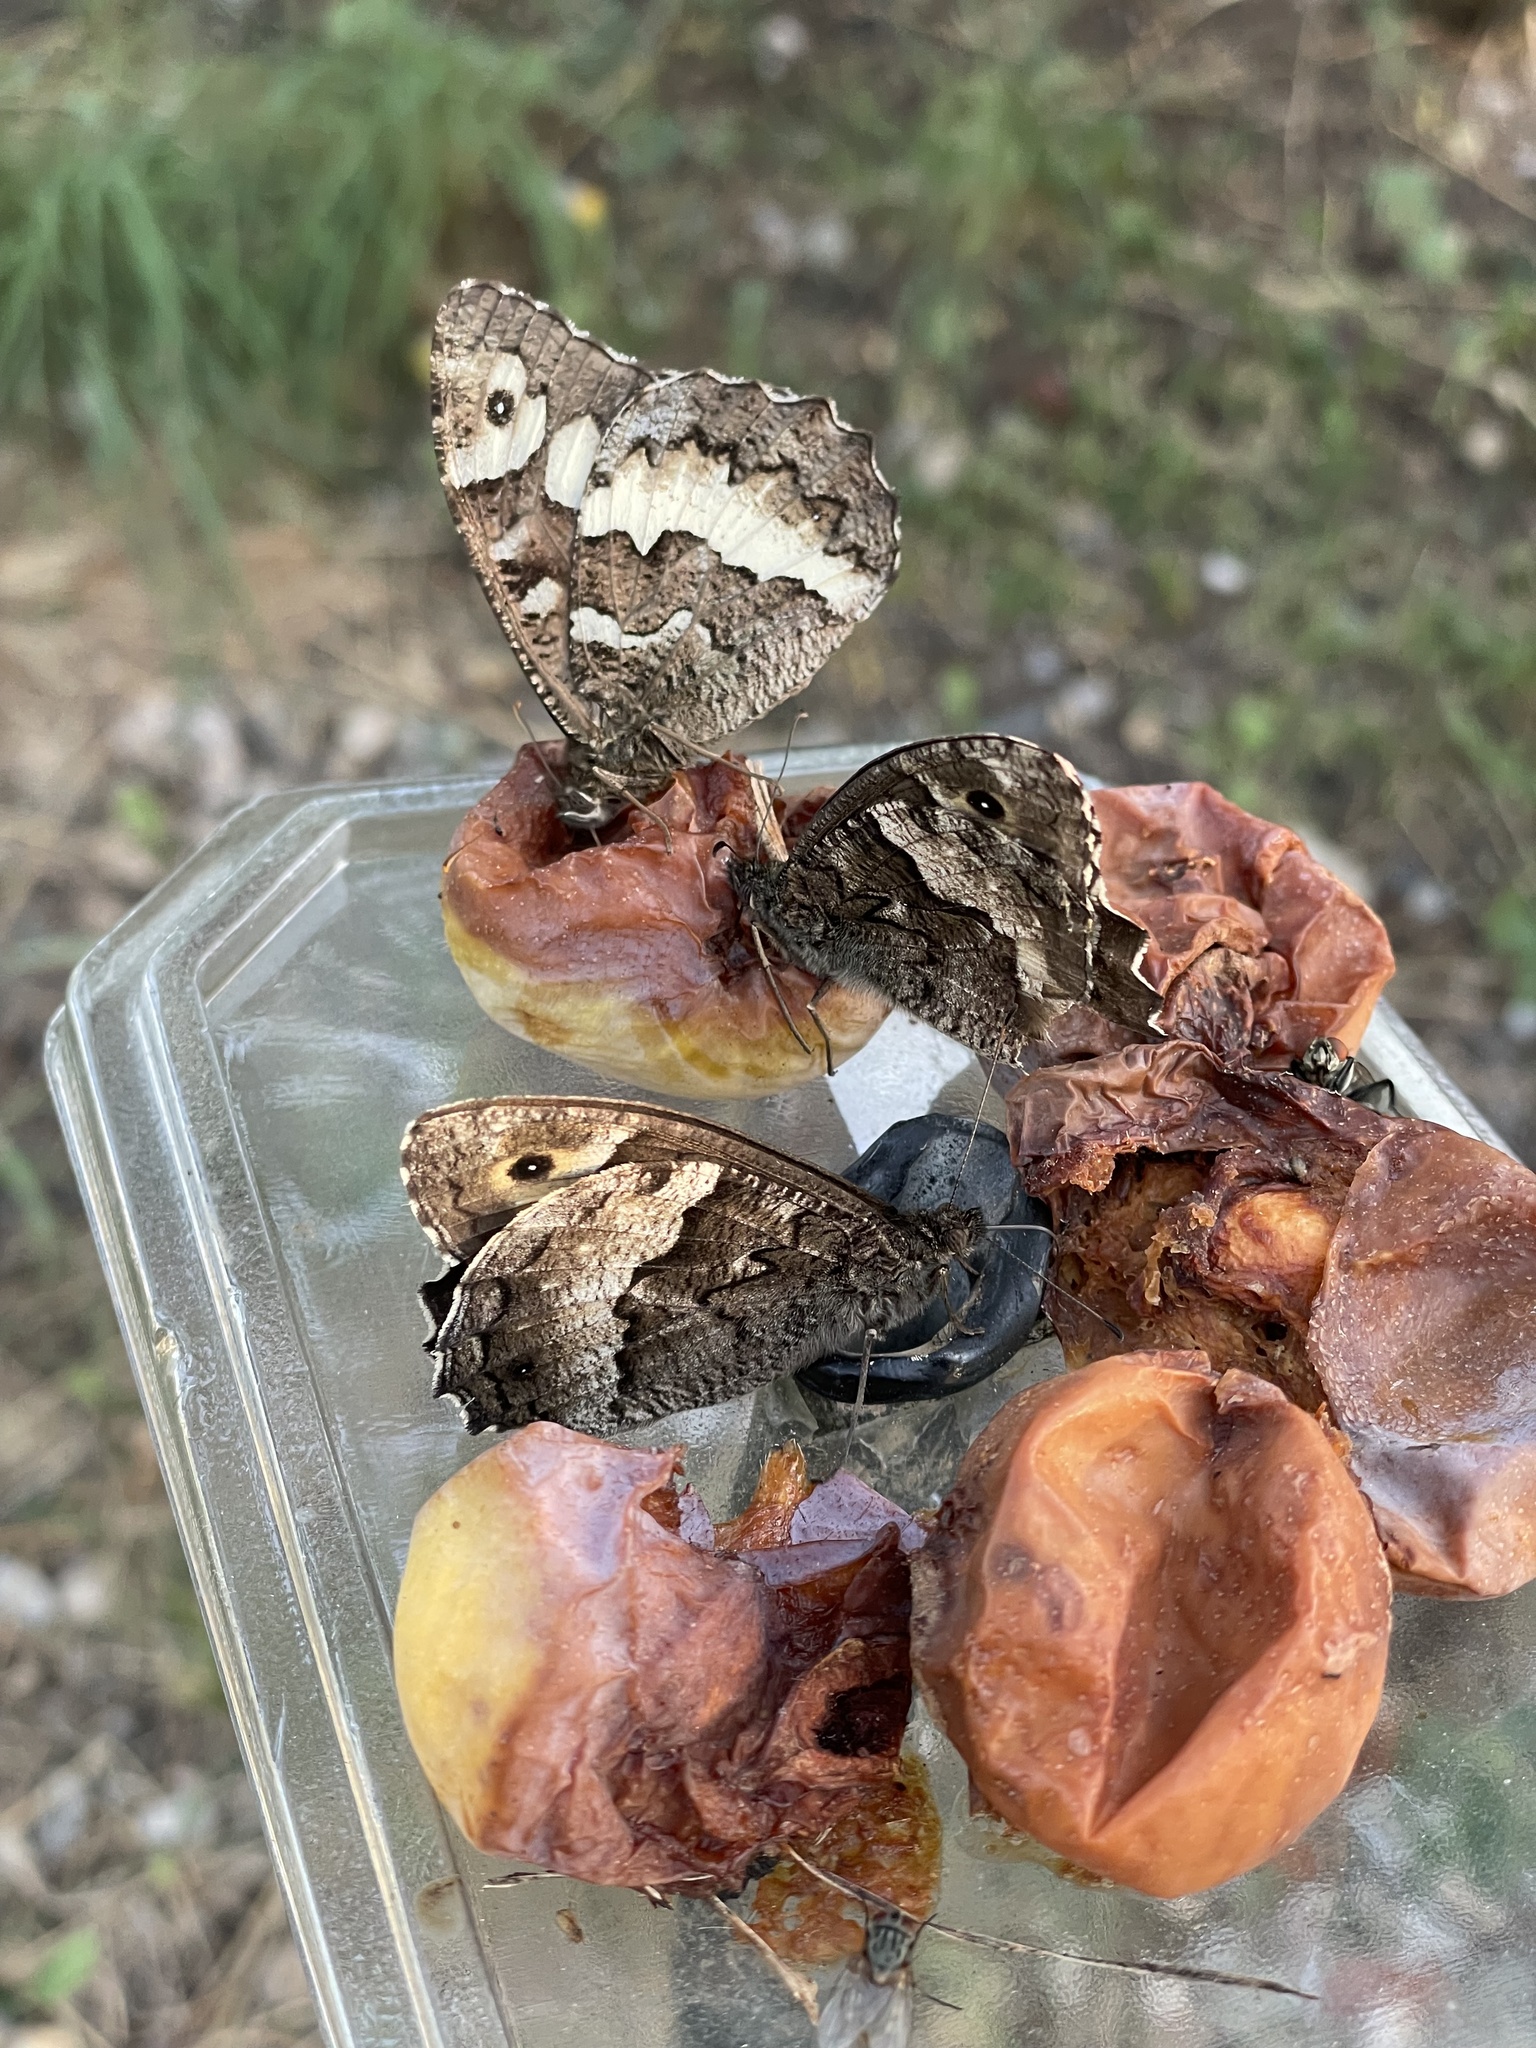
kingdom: Animalia
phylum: Arthropoda
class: Insecta
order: Lepidoptera
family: Nymphalidae
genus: Hipparchia
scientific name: Hipparchia fagi
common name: Woodland grayling
